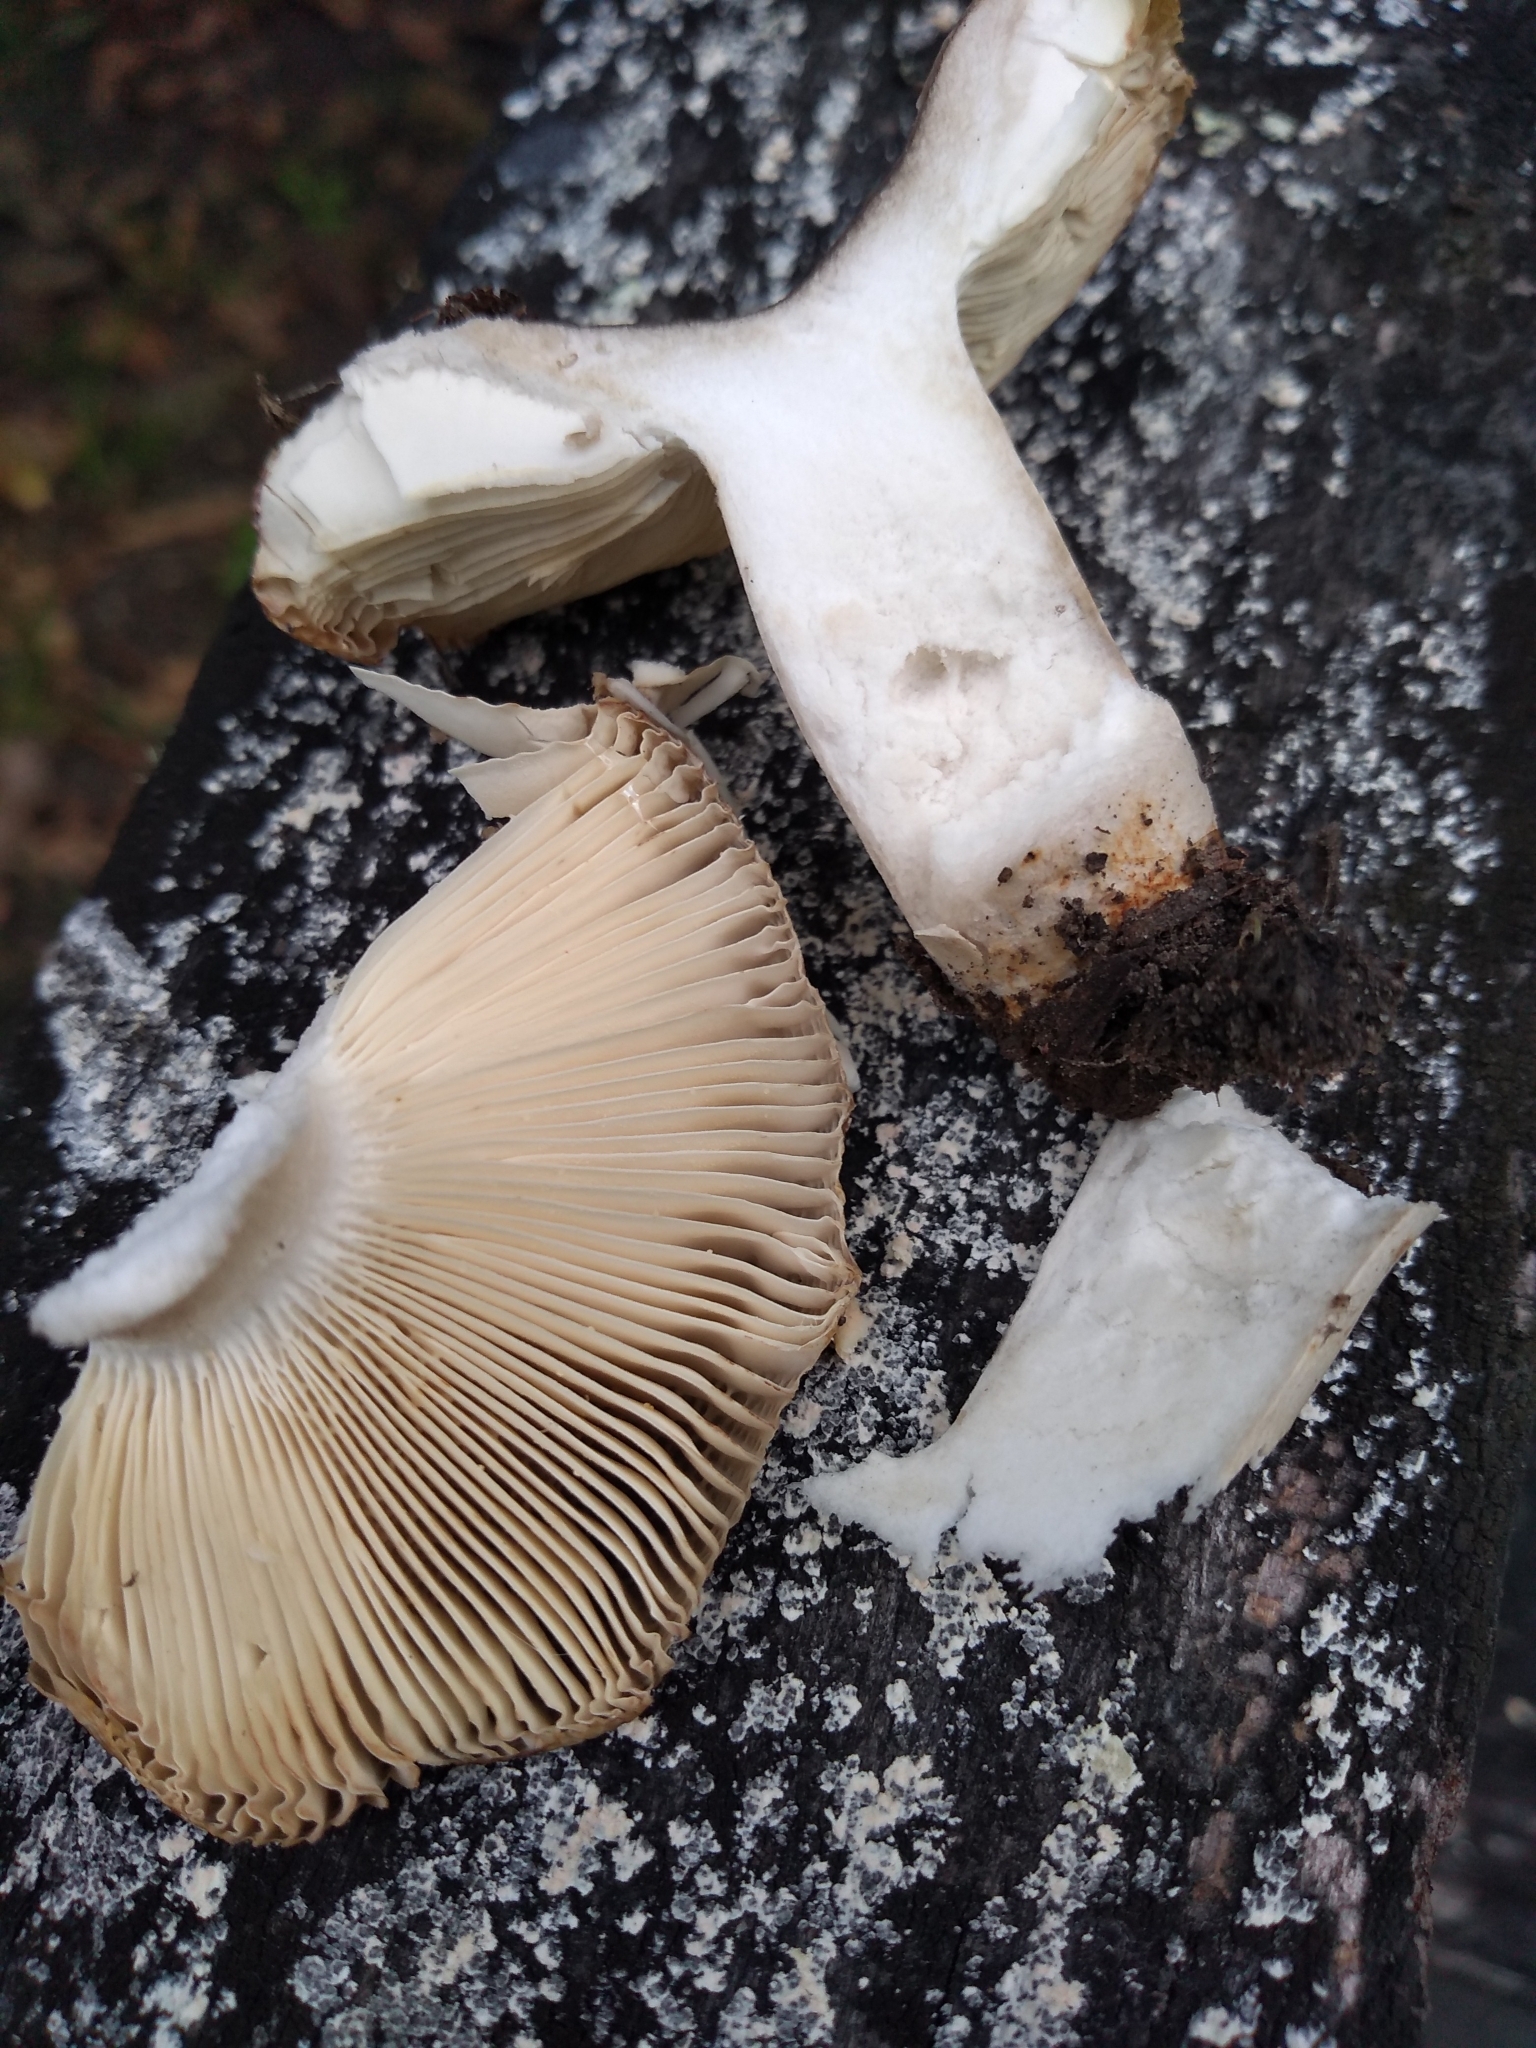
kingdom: Fungi
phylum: Basidiomycota
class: Agaricomycetes
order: Russulales
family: Russulaceae
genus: Russula
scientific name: Russula amoenolens
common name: Camembert brittlegill
